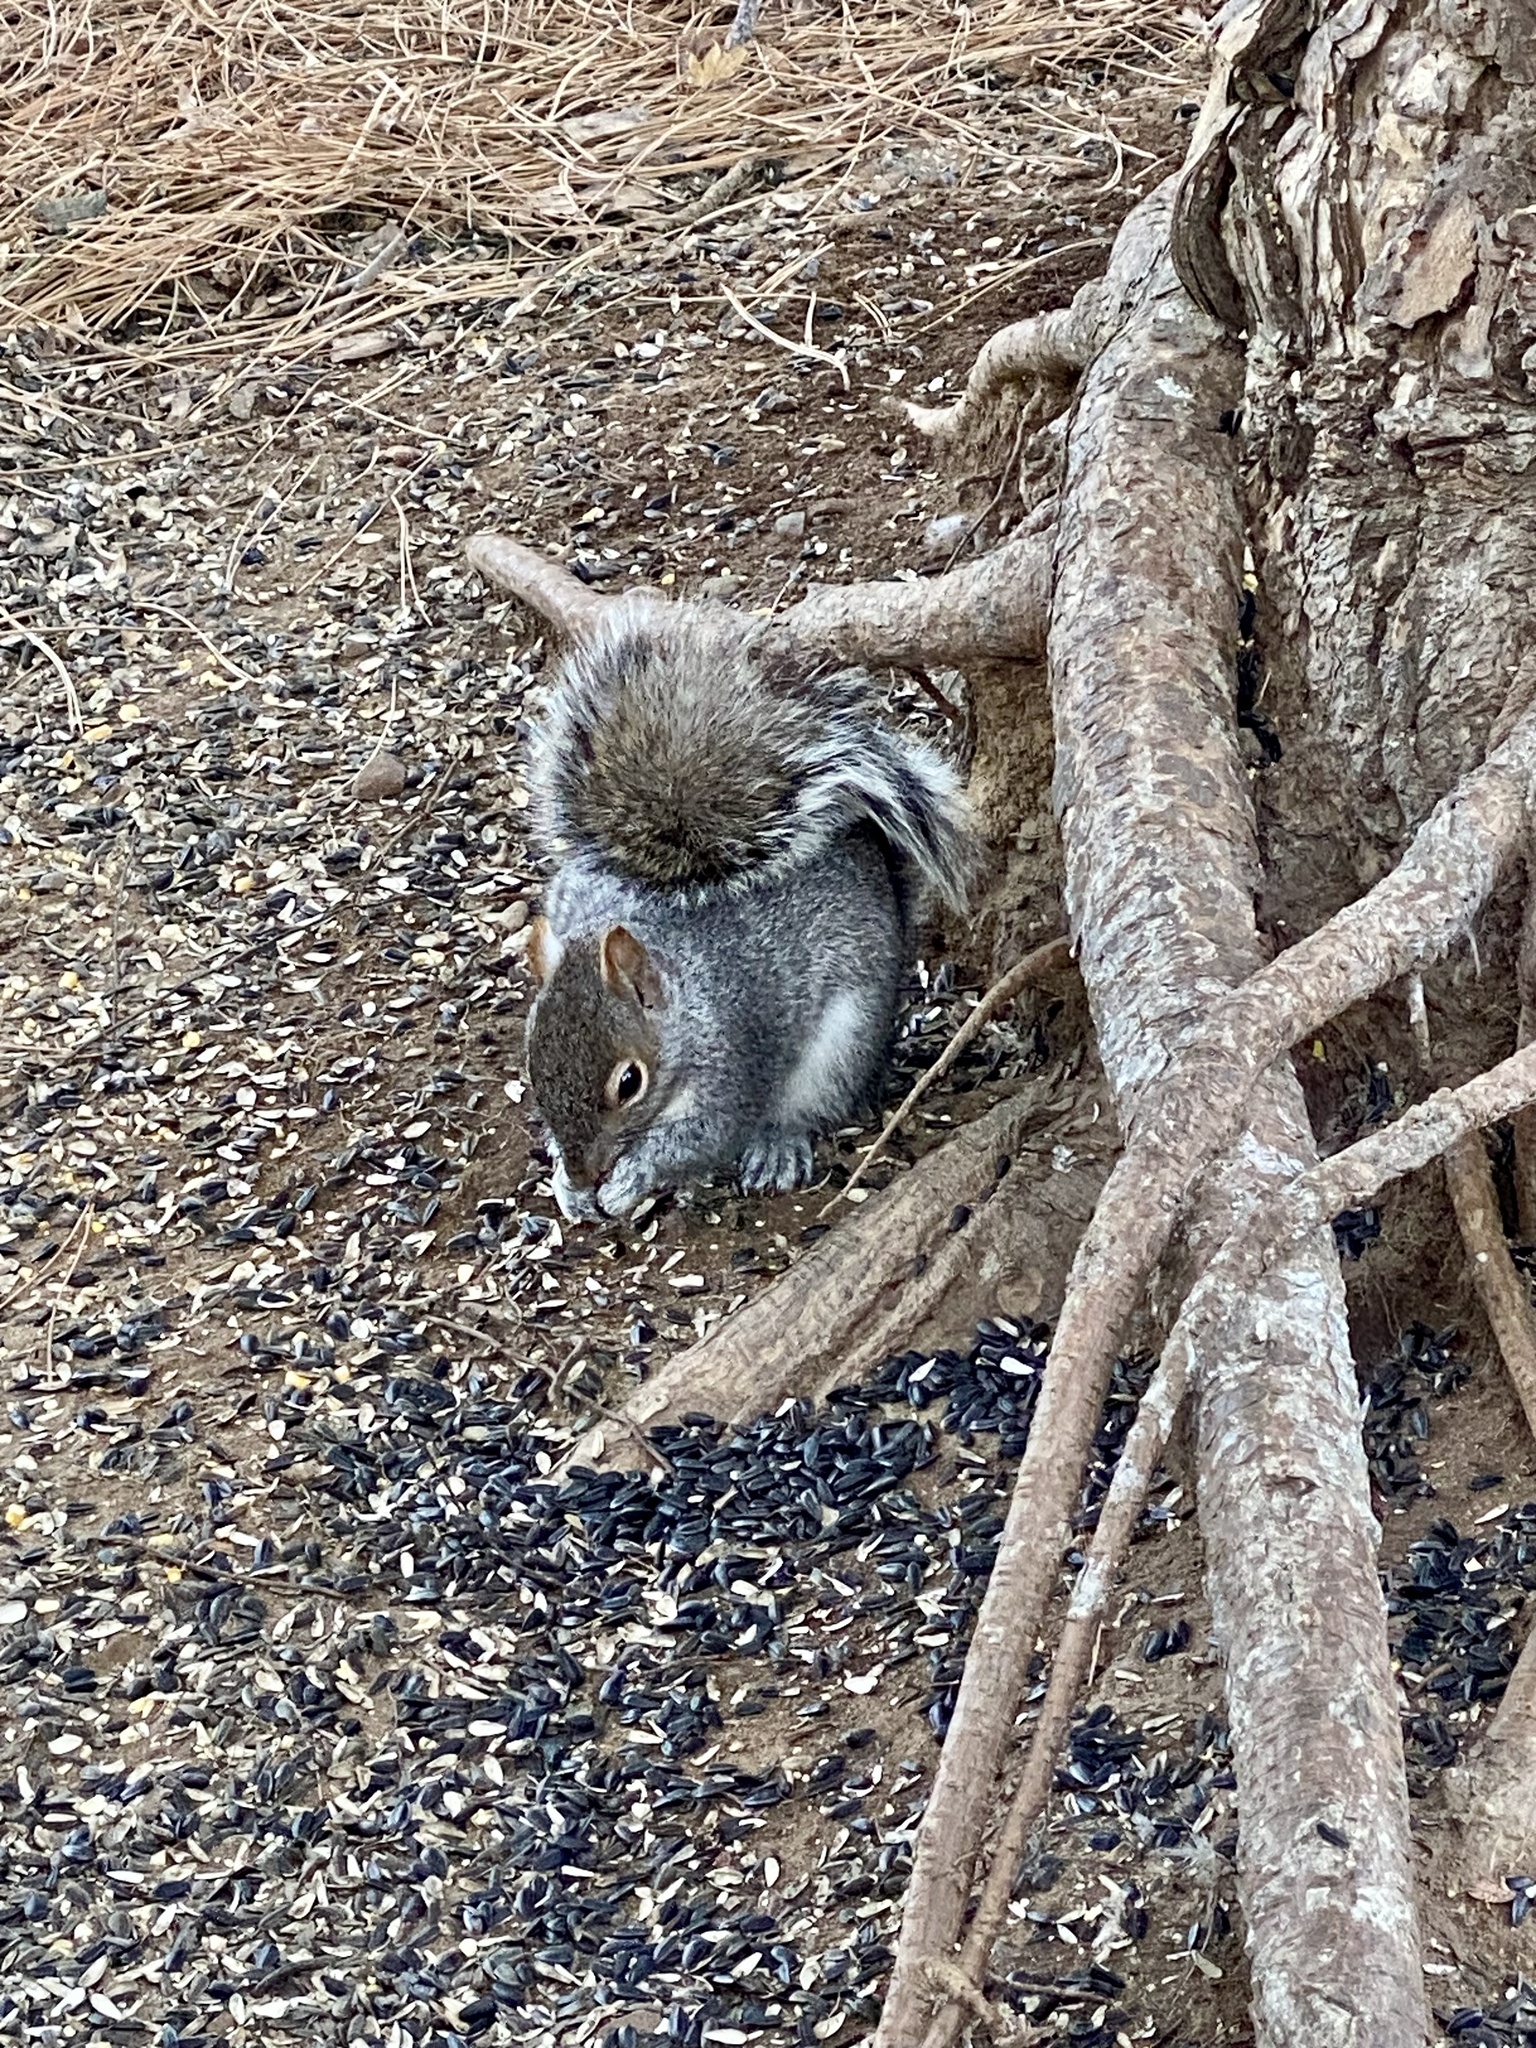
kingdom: Animalia
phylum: Chordata
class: Mammalia
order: Rodentia
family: Sciuridae
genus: Sciurus
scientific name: Sciurus carolinensis
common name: Eastern gray squirrel
